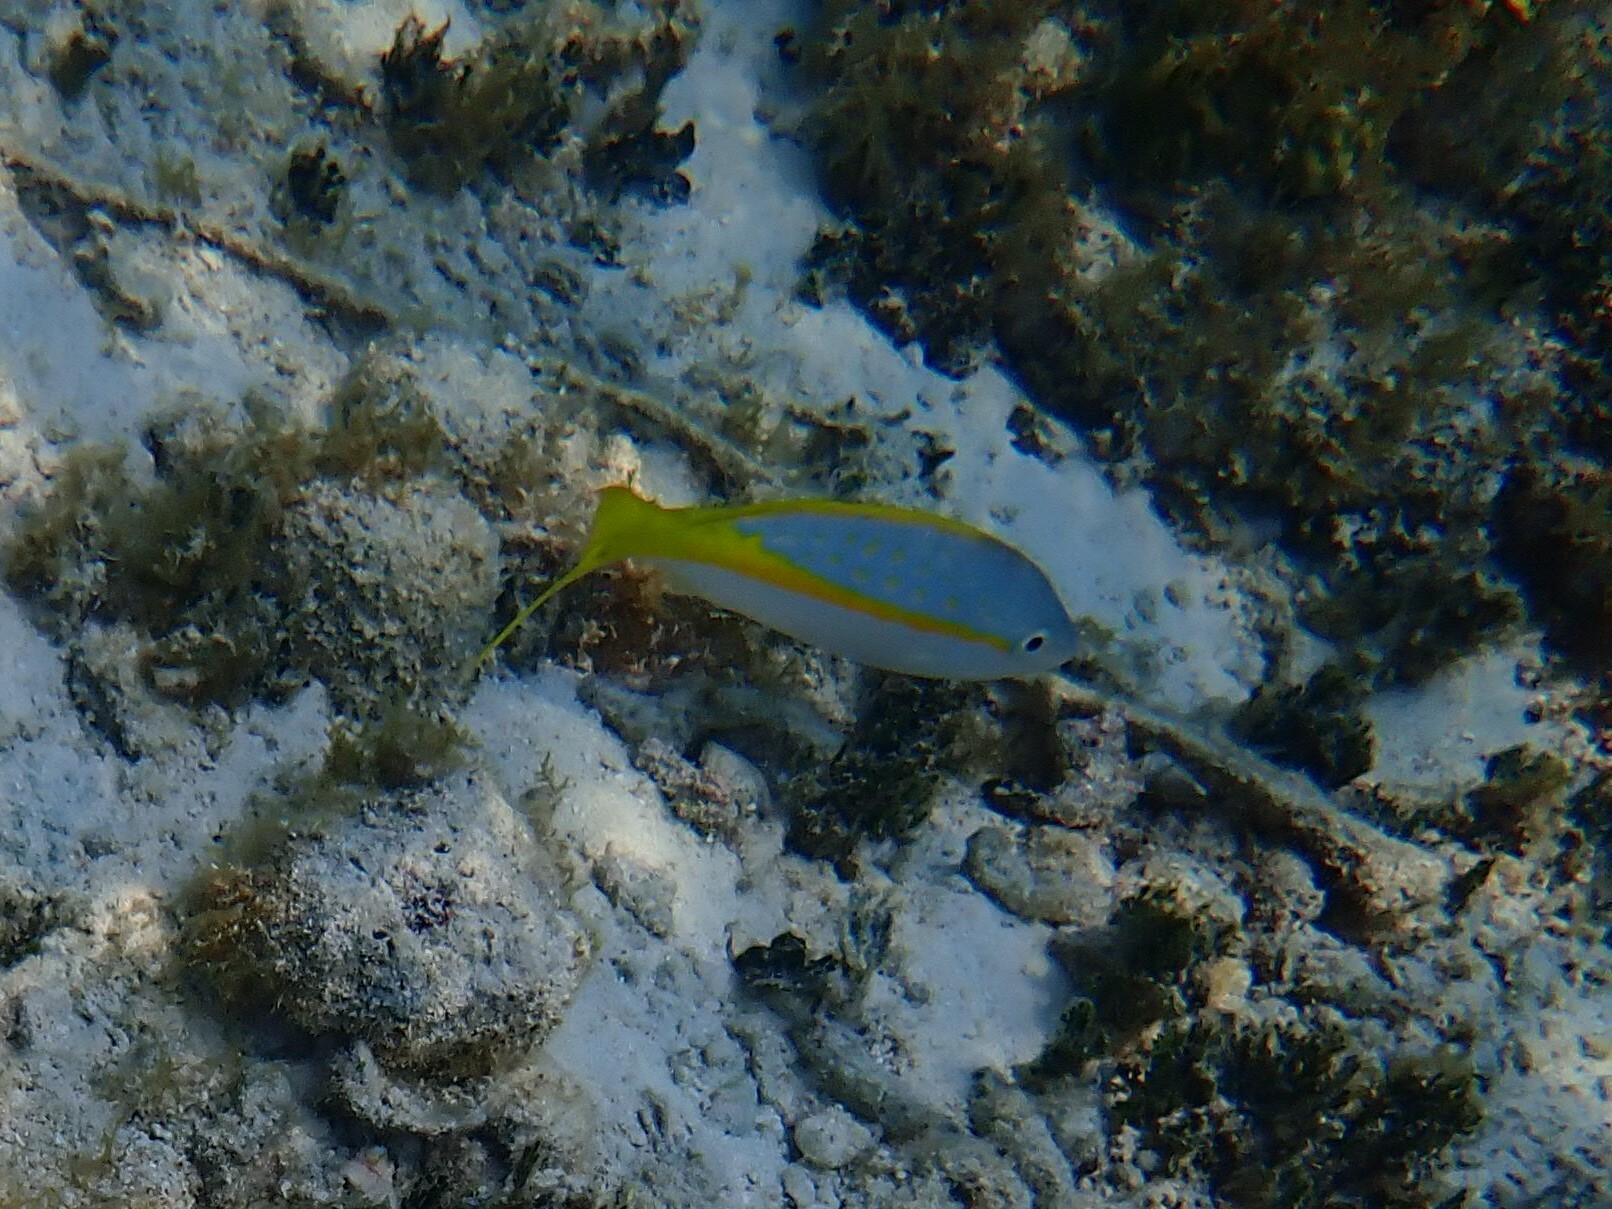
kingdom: Animalia
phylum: Chordata
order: Perciformes
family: Lutjanidae
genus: Ocyurus
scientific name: Ocyurus chrysurus
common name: Yellowtail snapper
